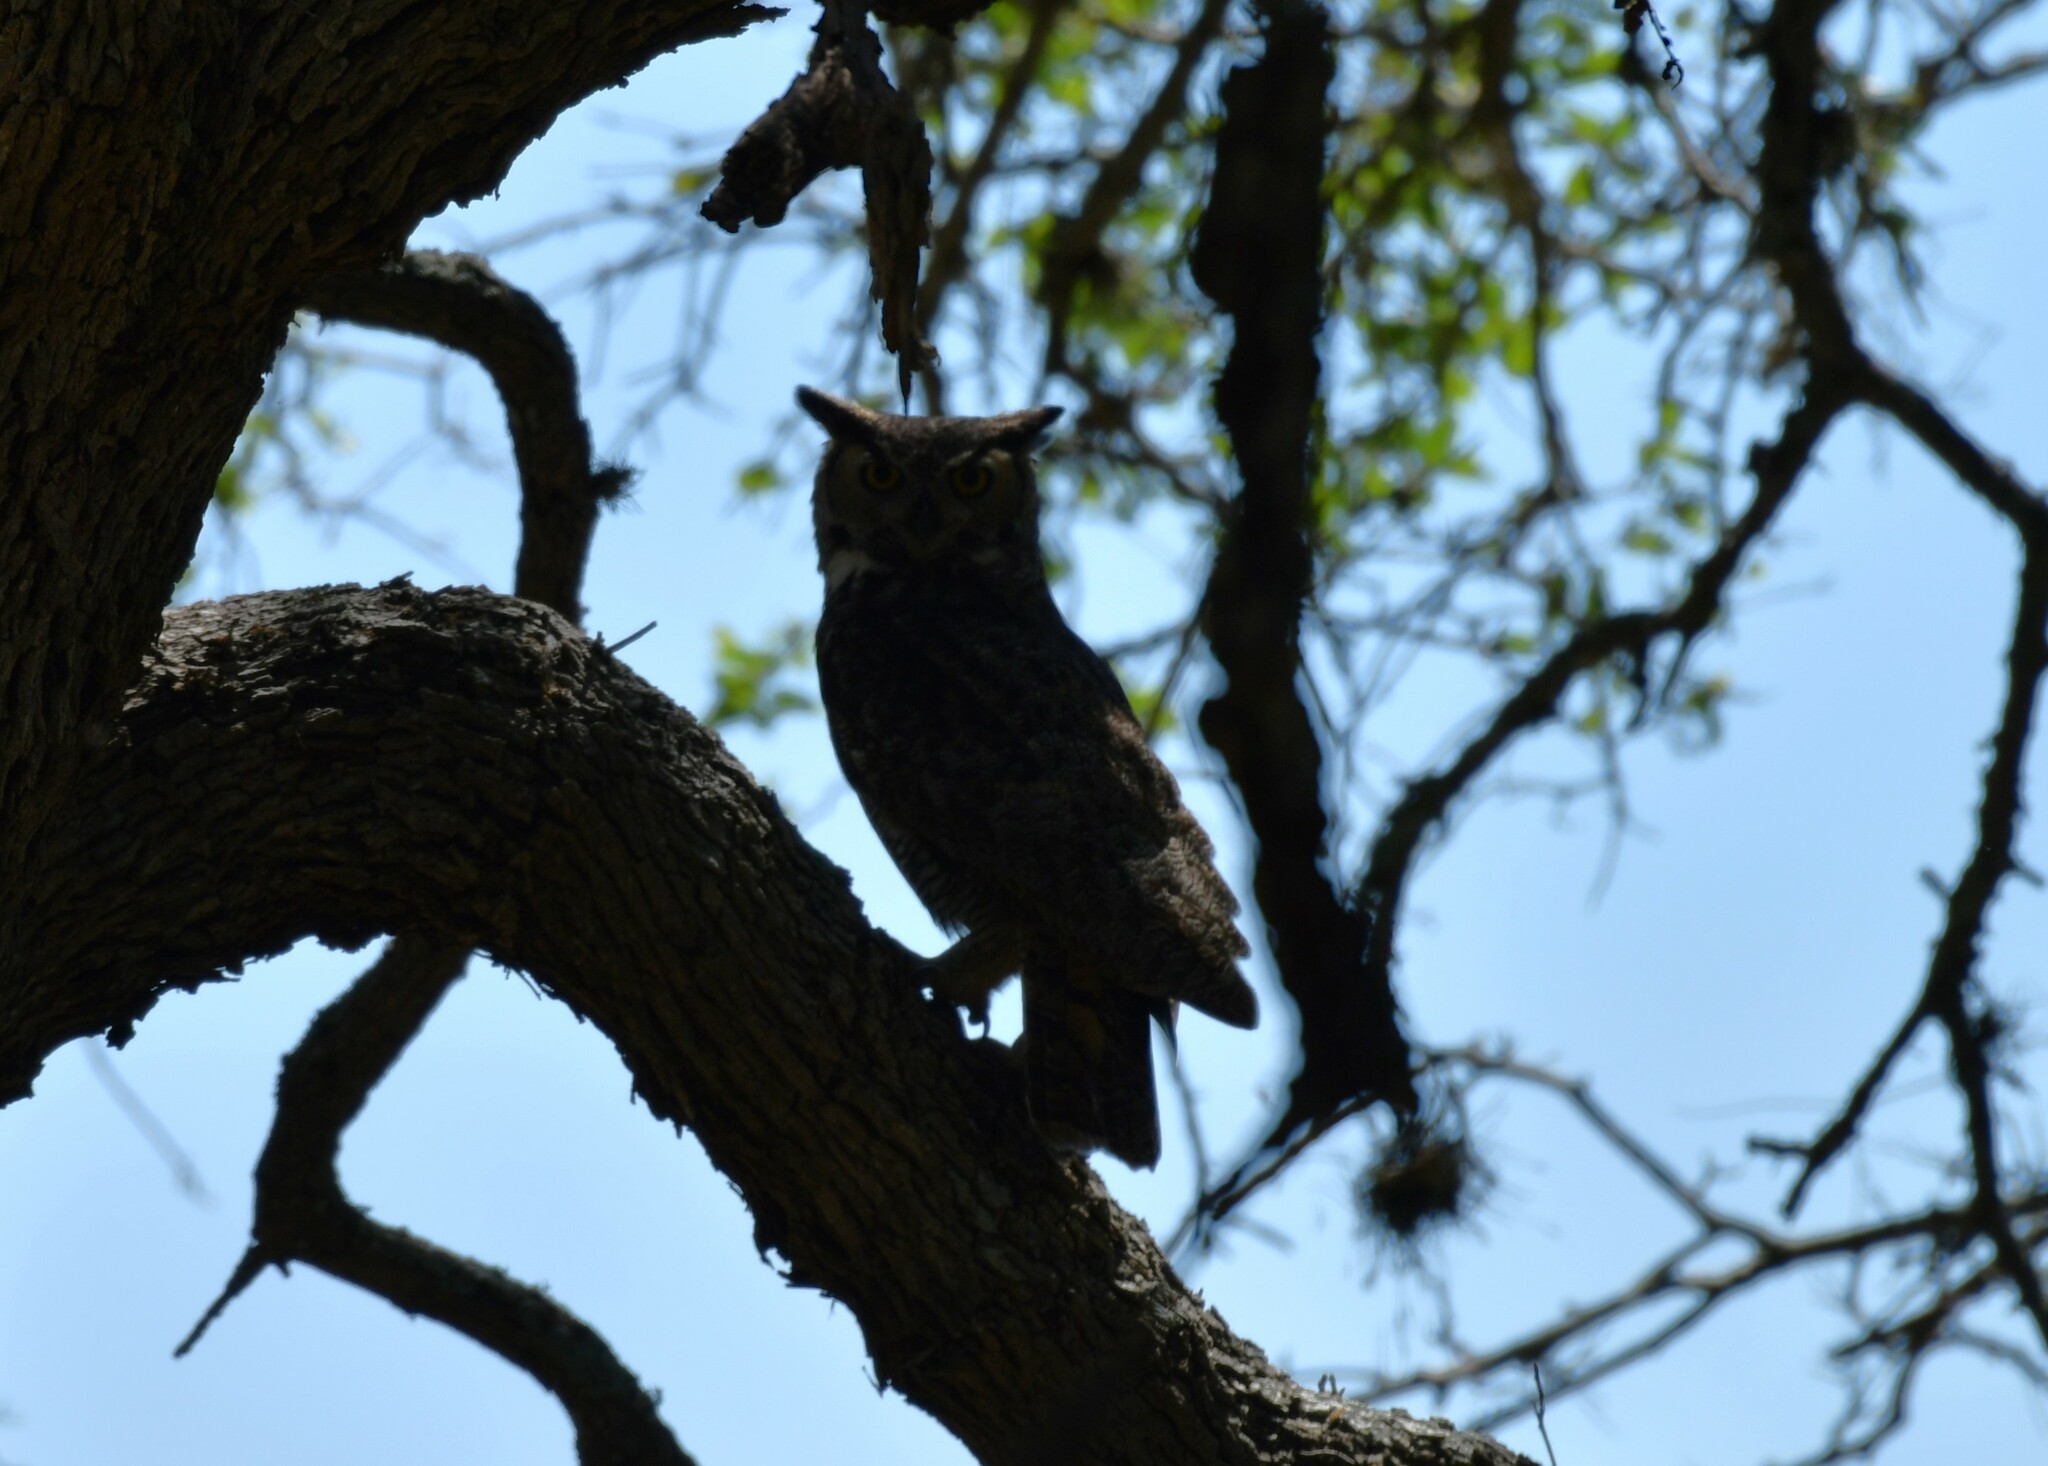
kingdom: Animalia
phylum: Chordata
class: Aves
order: Strigiformes
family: Strigidae
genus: Bubo
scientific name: Bubo virginianus
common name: Great horned owl
